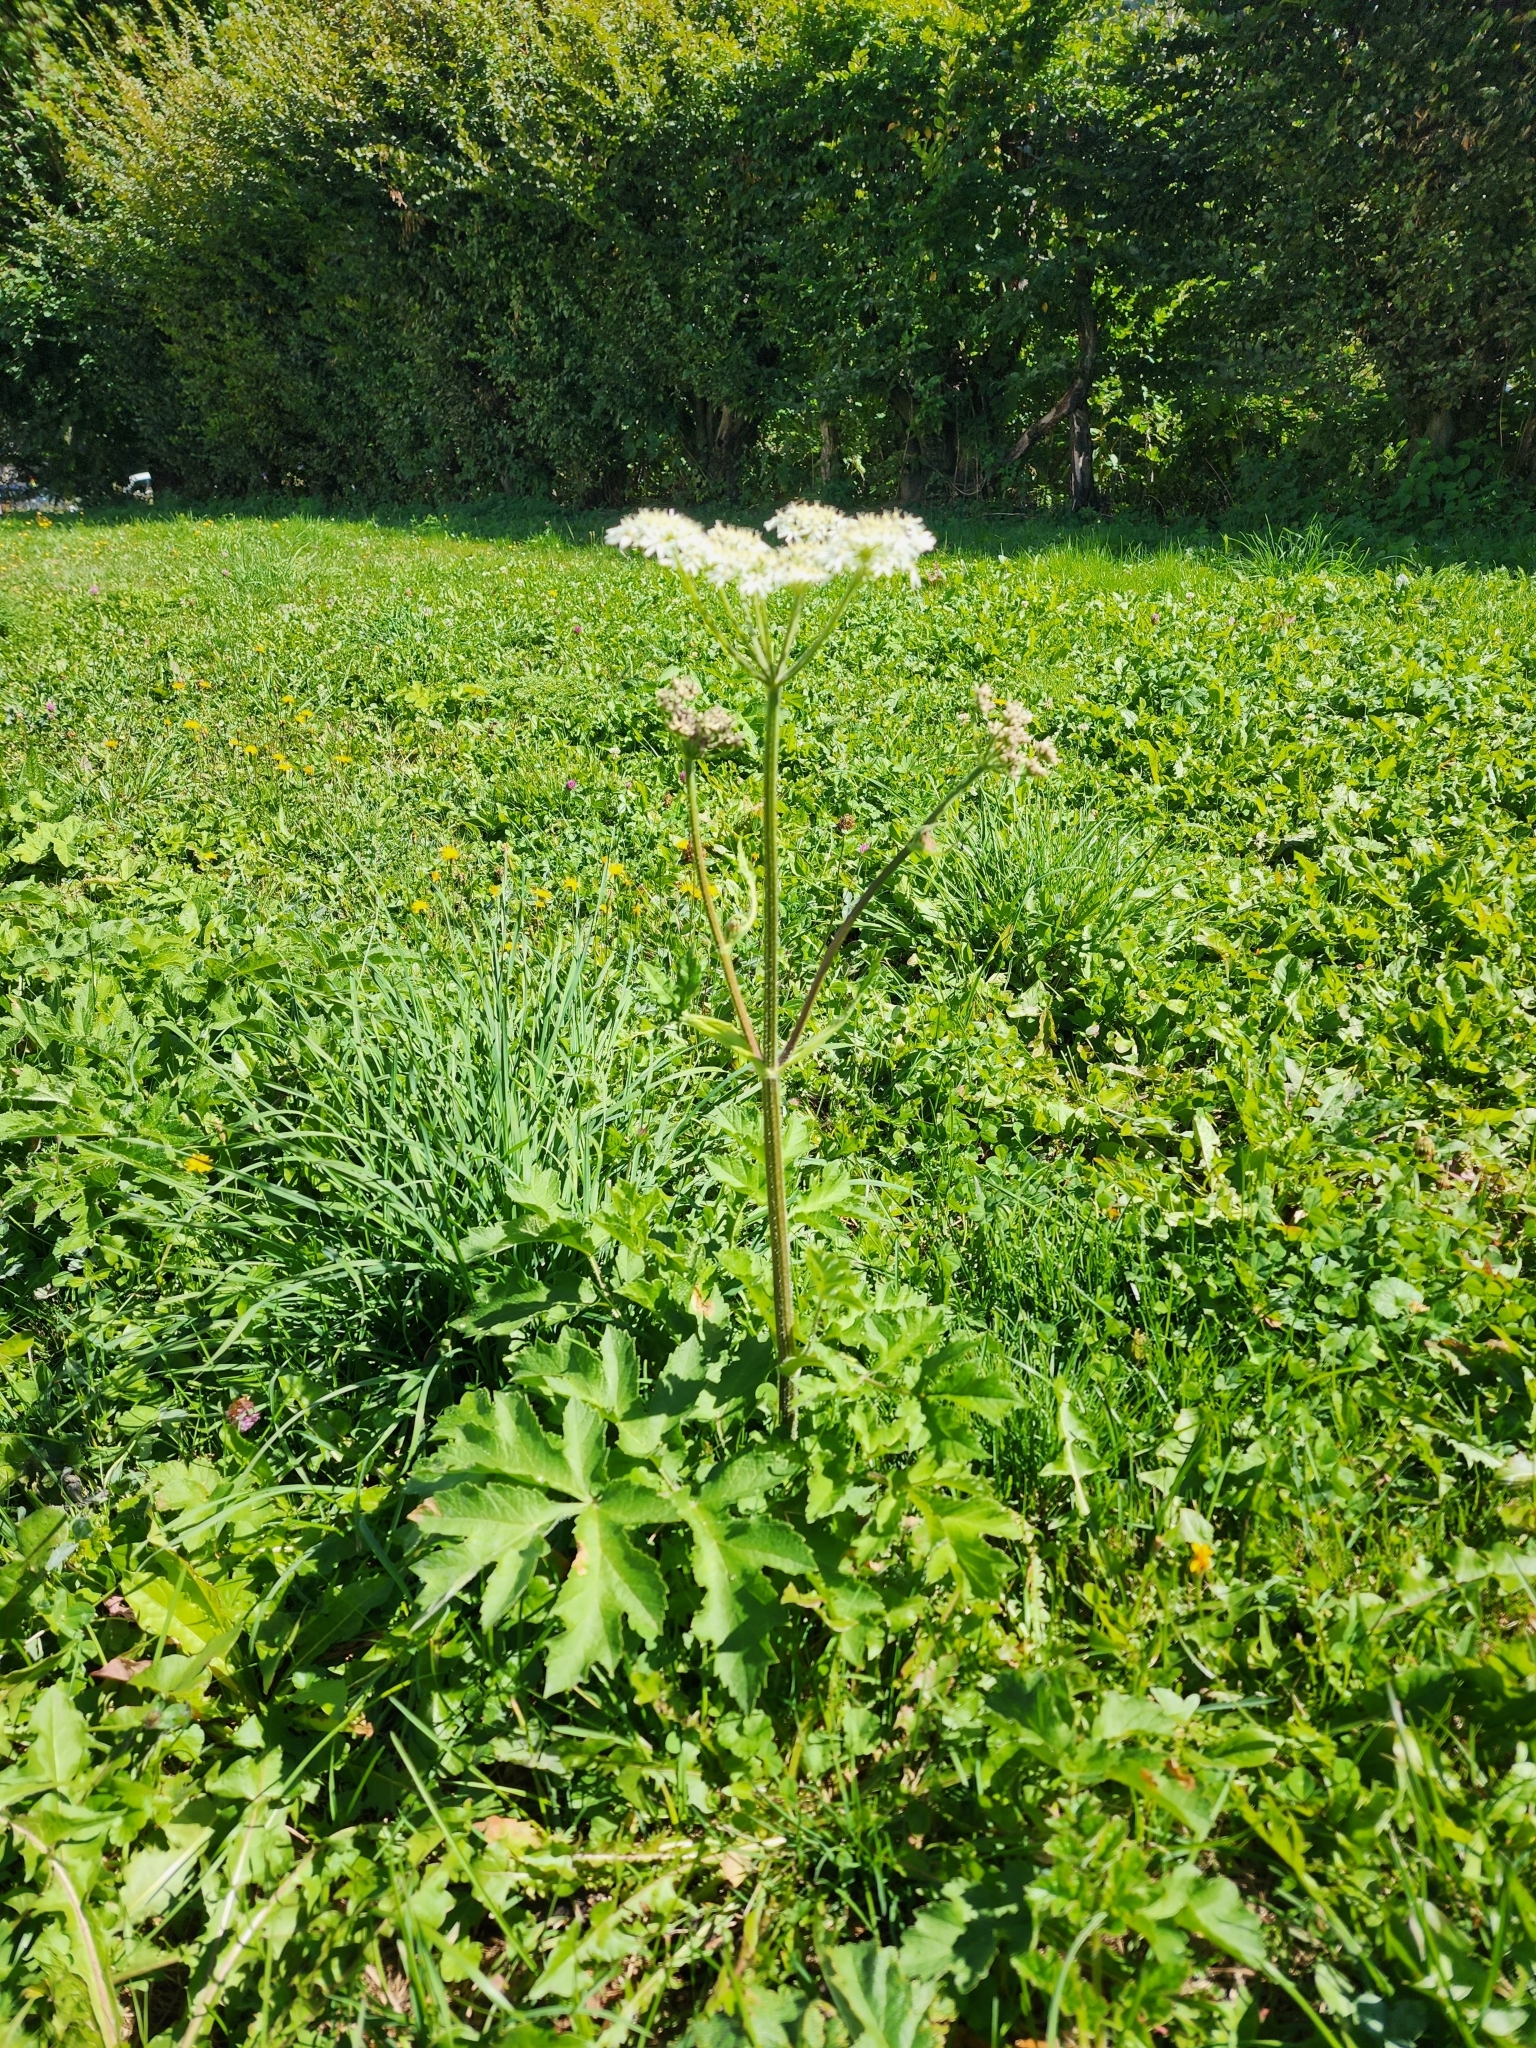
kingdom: Plantae
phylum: Tracheophyta
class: Magnoliopsida
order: Apiales
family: Apiaceae
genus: Heracleum
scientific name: Heracleum sphondylium
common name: Hogweed
